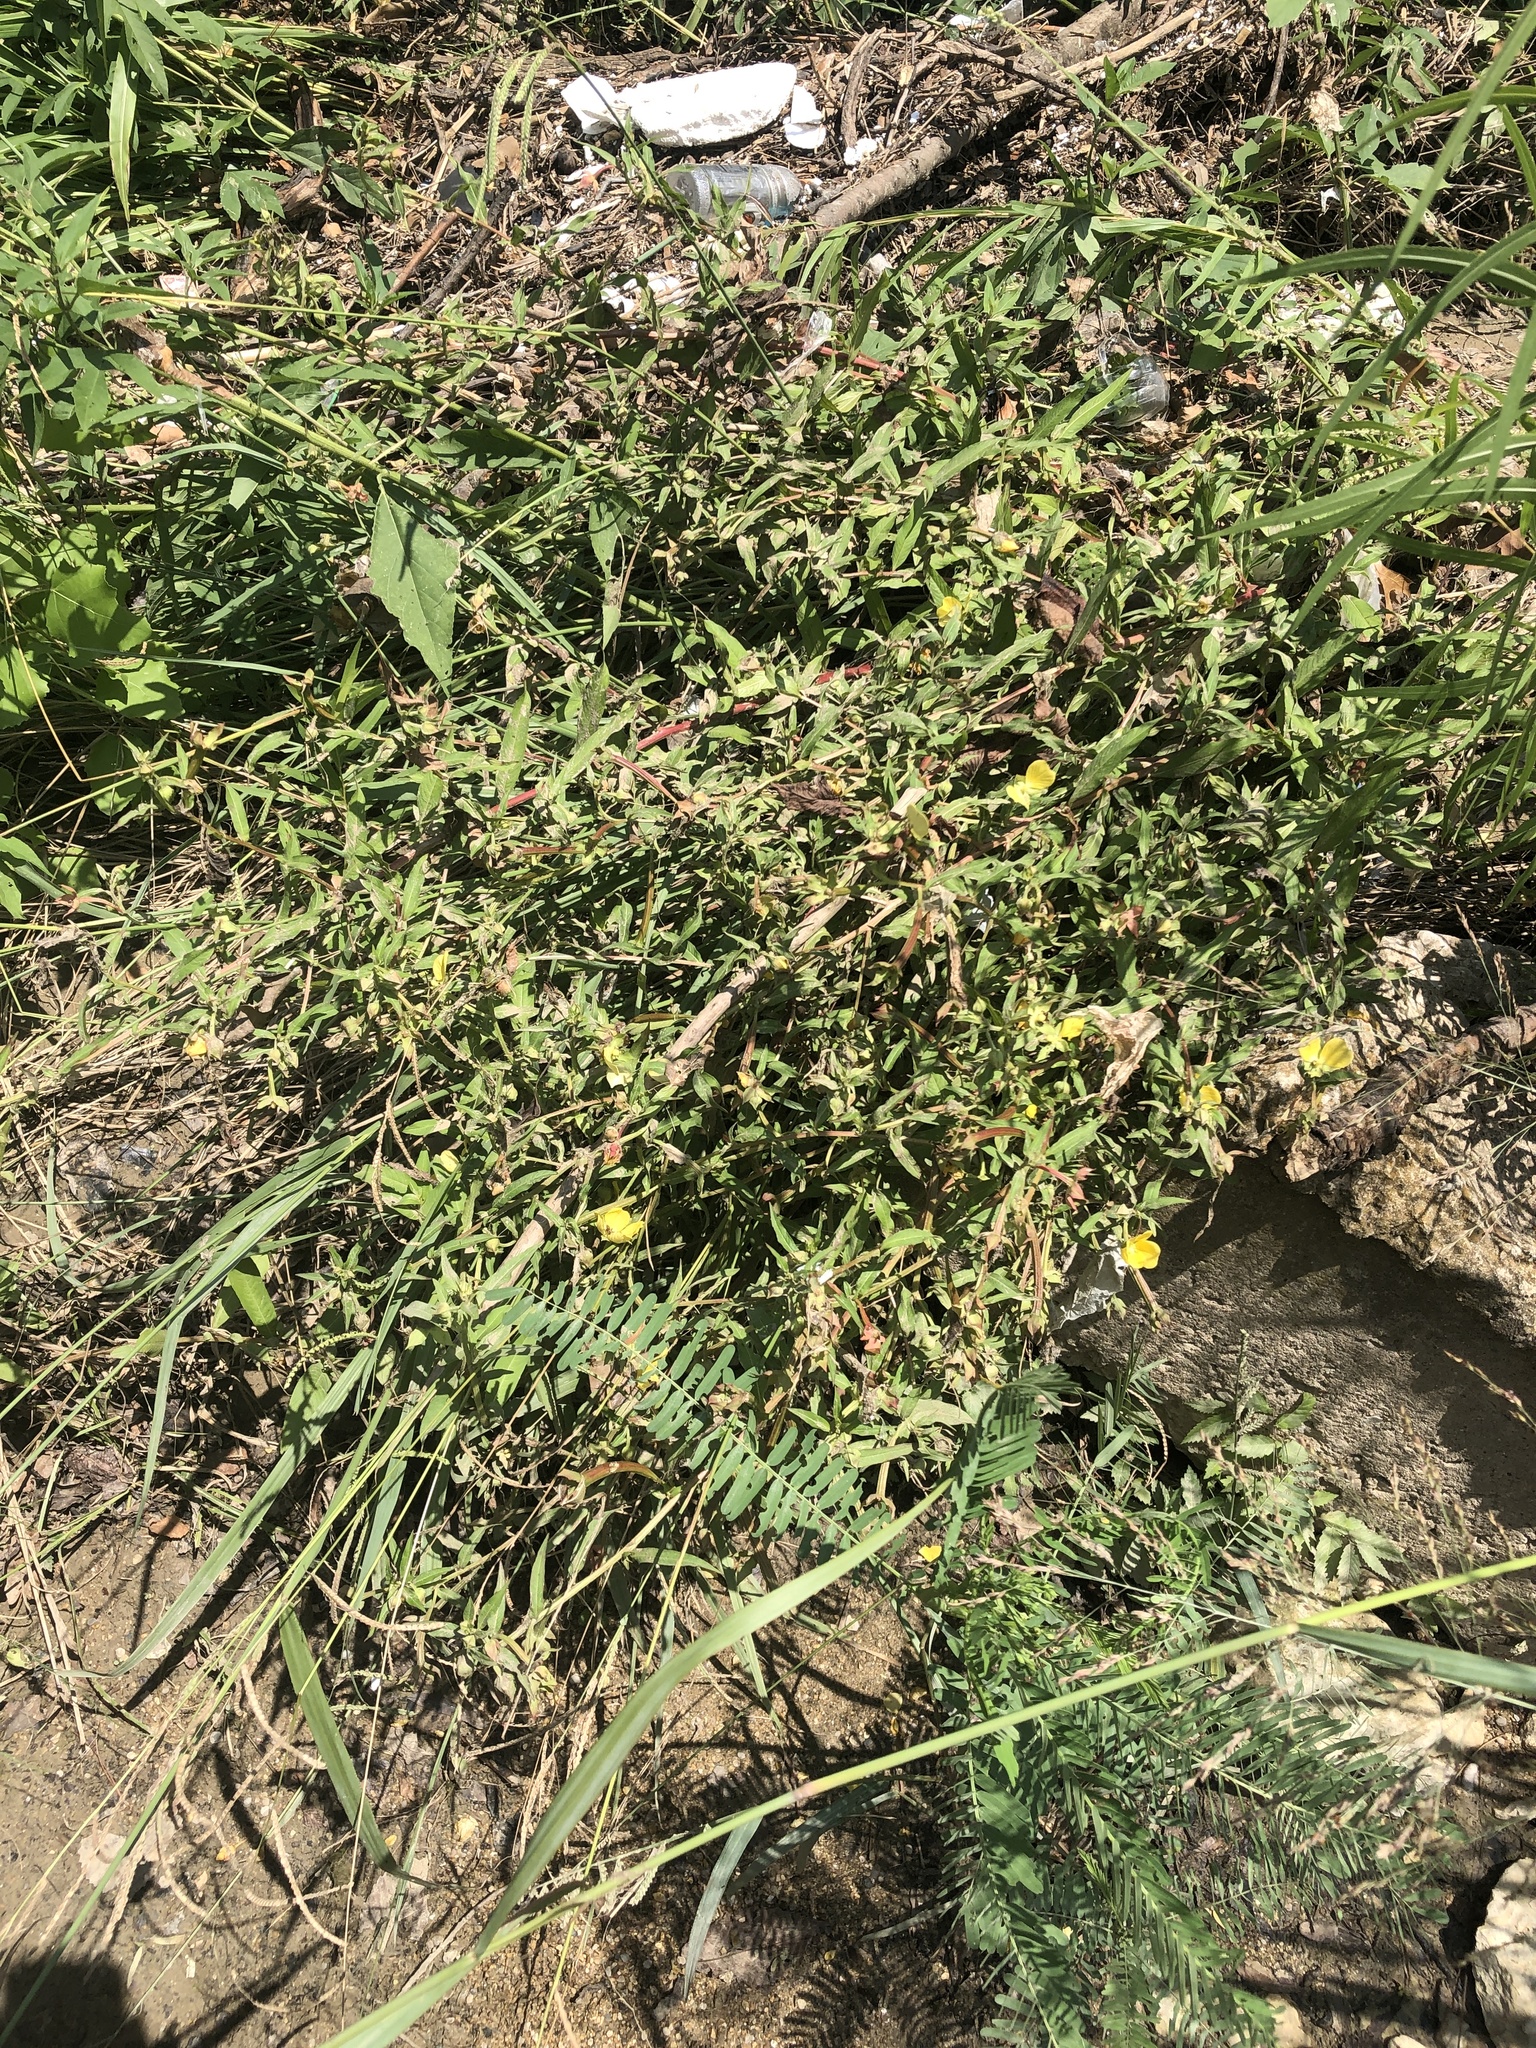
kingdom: Plantae
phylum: Tracheophyta
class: Magnoliopsida
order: Myrtales
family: Onagraceae
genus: Ludwigia
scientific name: Ludwigia octovalvis
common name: Water-primrose
